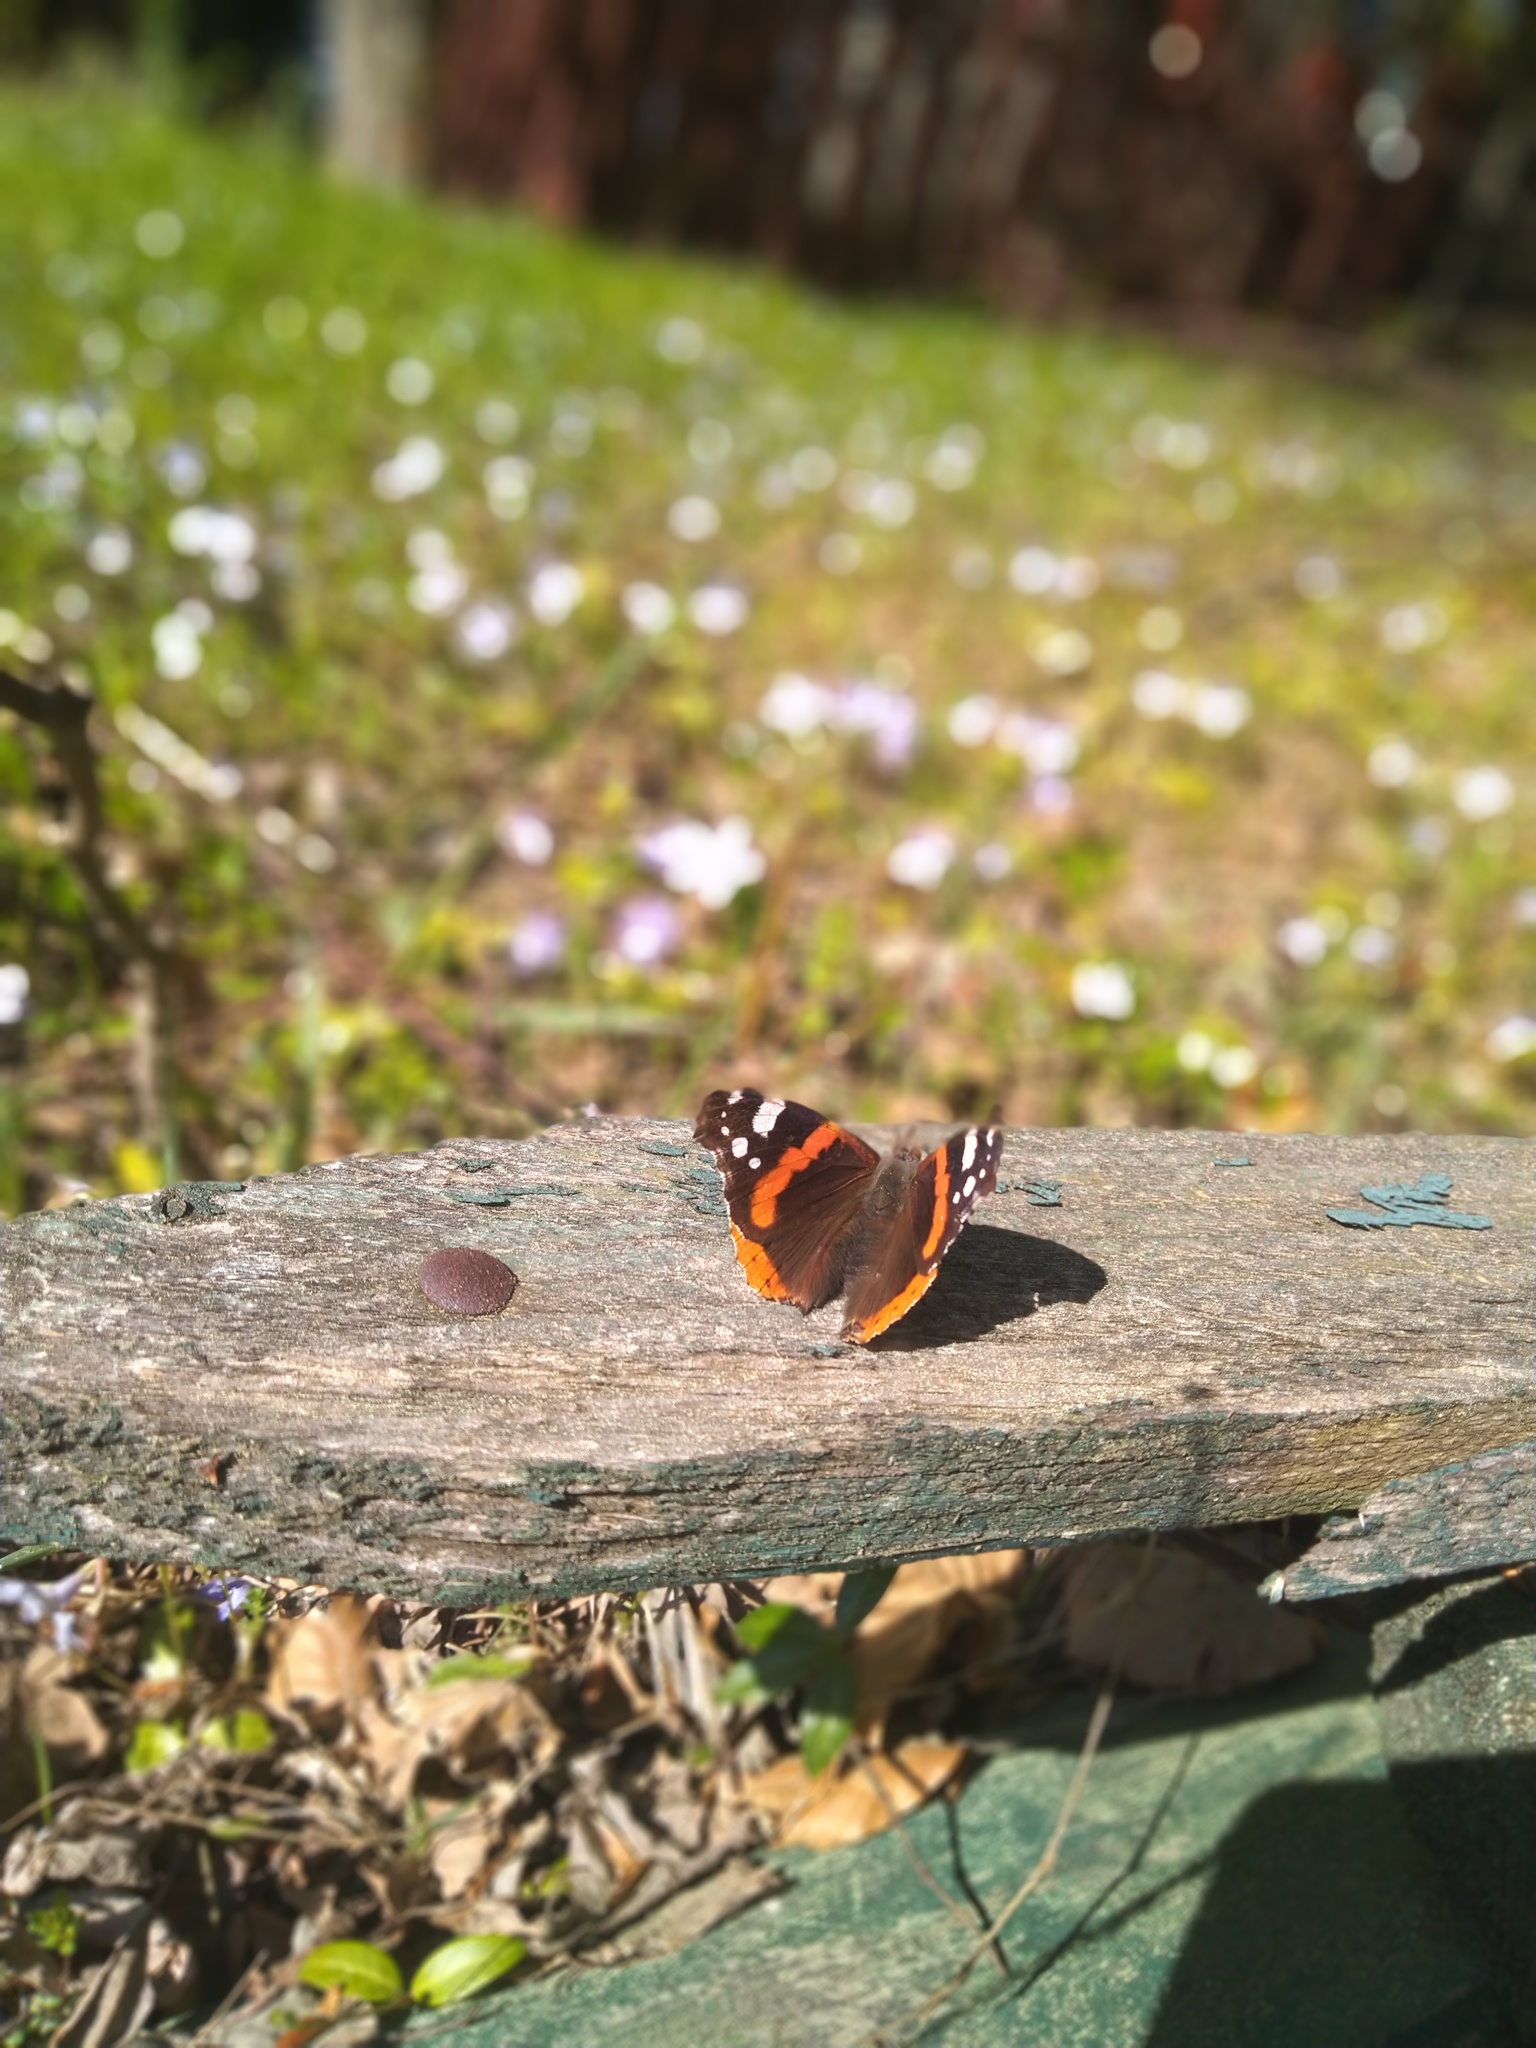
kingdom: Animalia
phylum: Arthropoda
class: Insecta
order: Lepidoptera
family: Nymphalidae
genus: Vanessa
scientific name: Vanessa atalanta
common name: Red admiral
